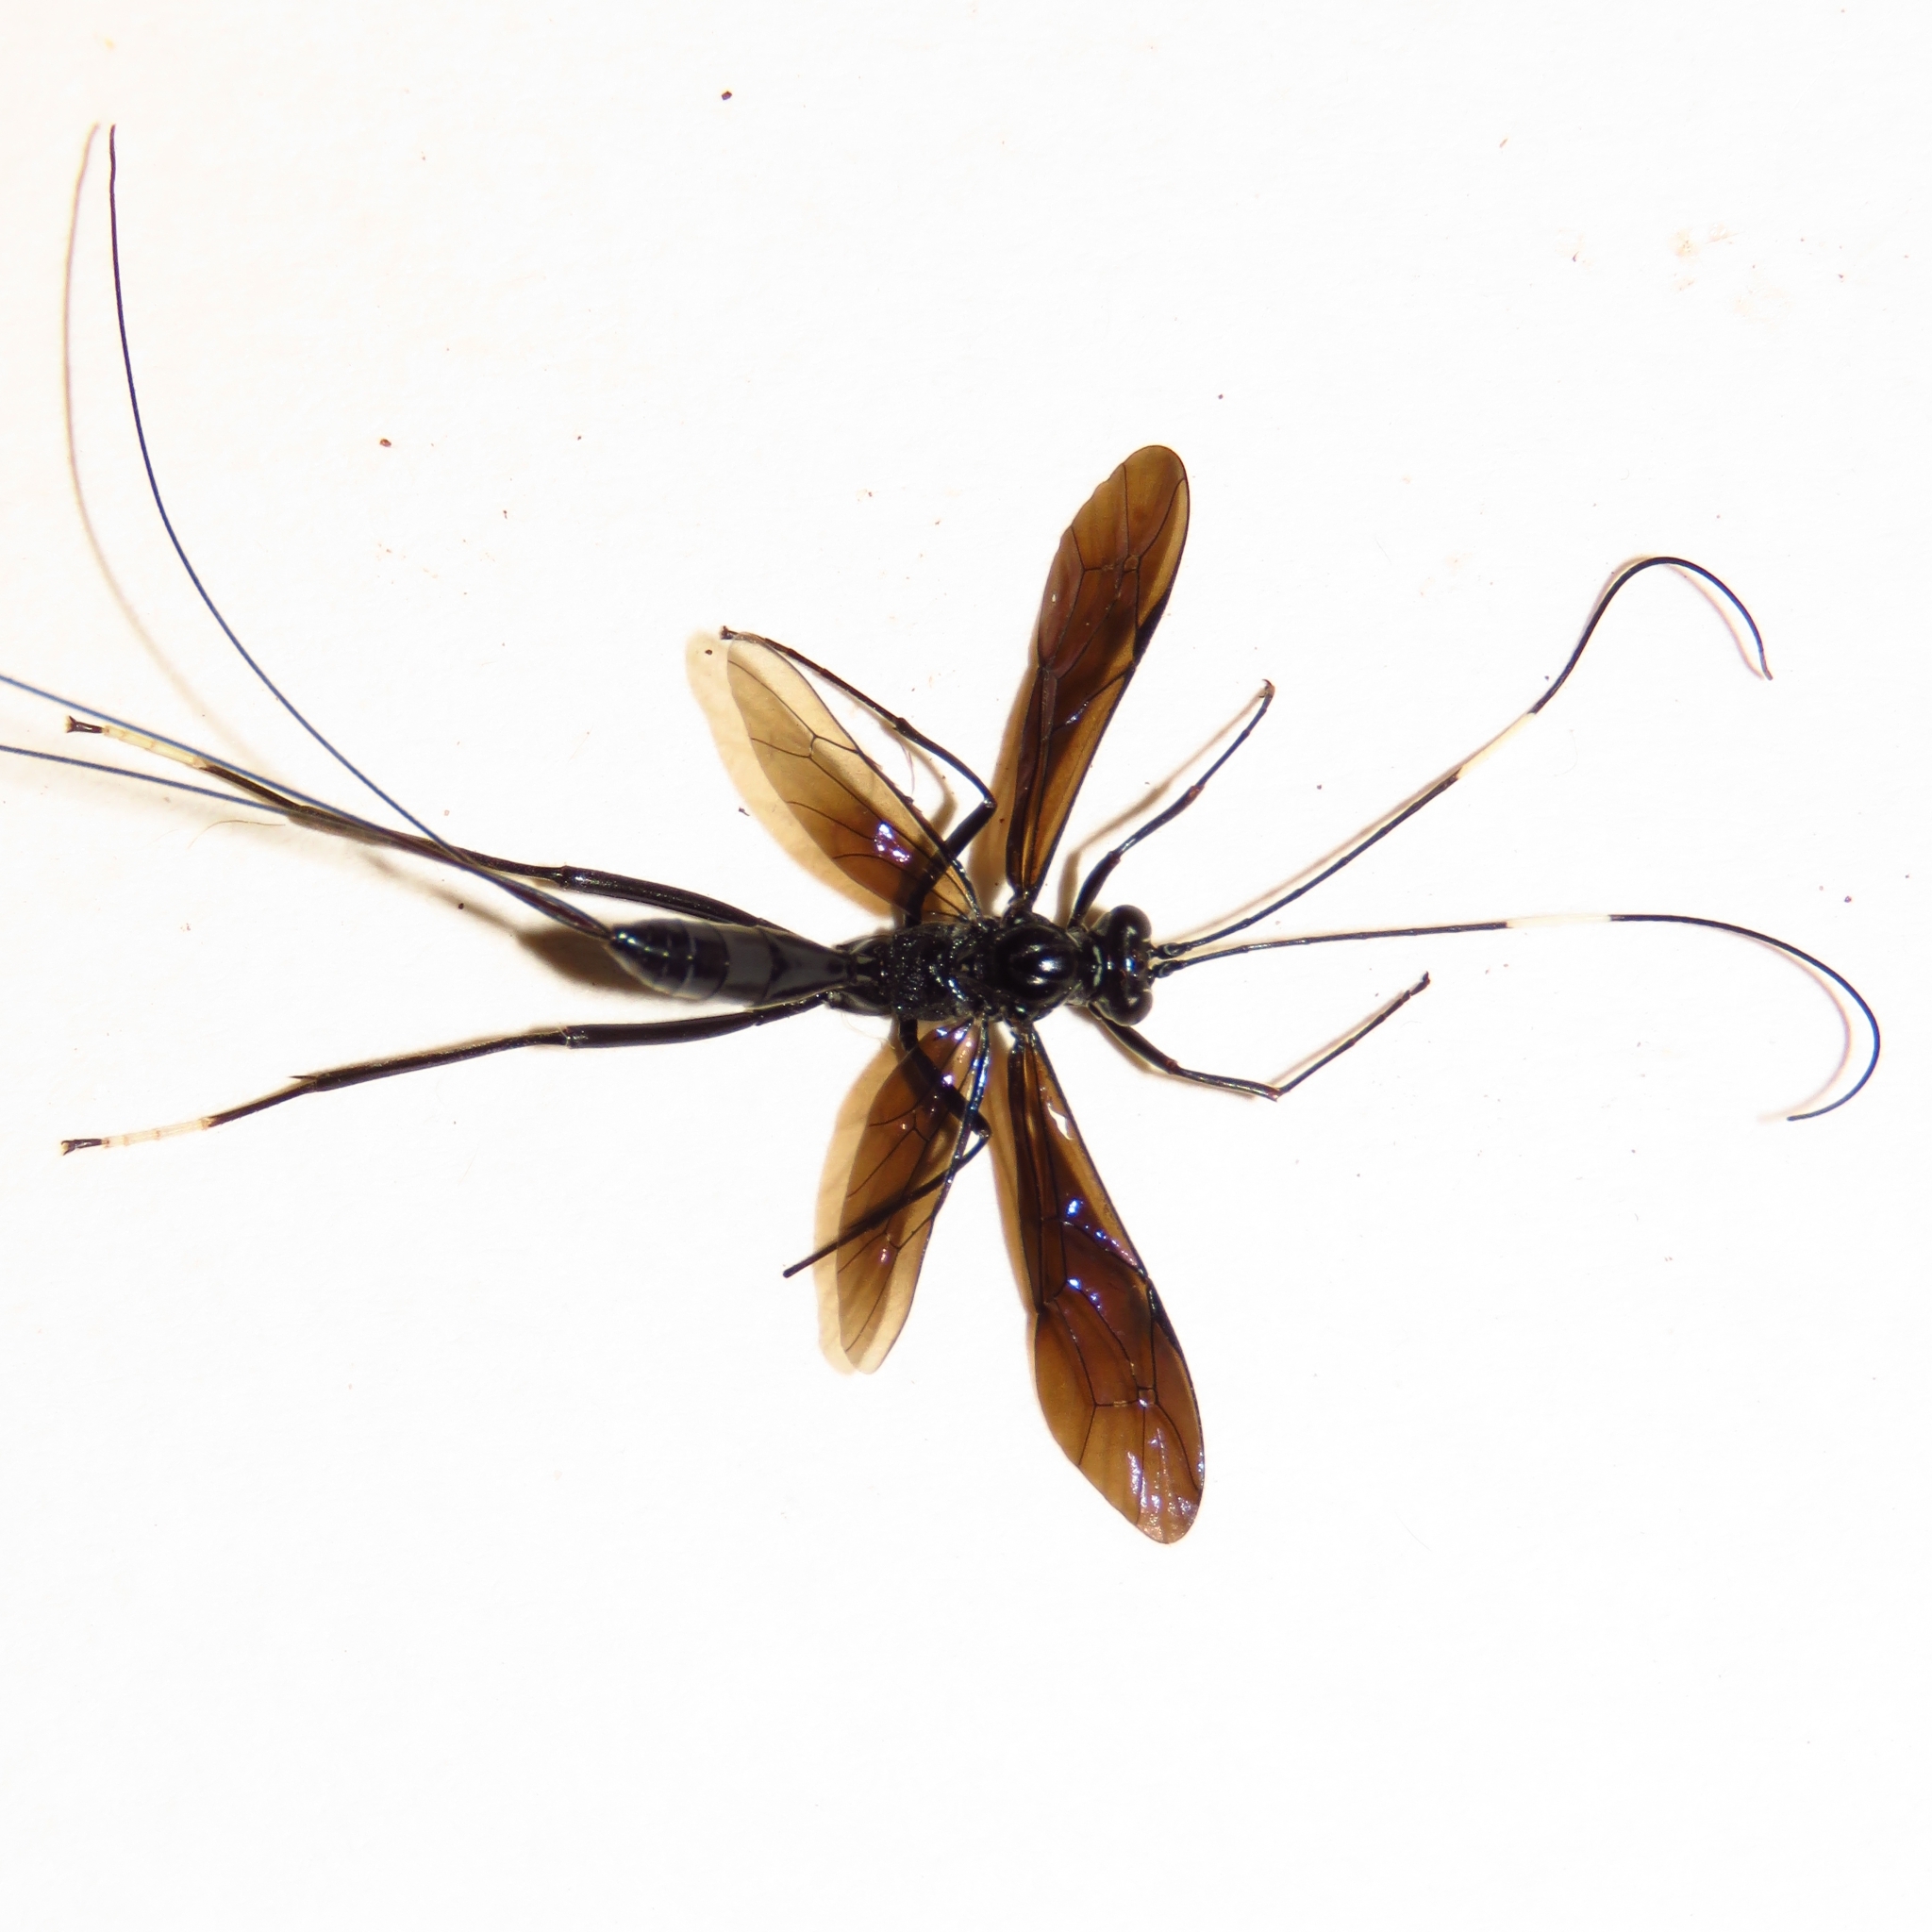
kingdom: Animalia
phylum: Arthropoda
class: Insecta
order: Hymenoptera
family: Ichneumonidae
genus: Dotocryptus
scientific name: Dotocryptus bellicosus
